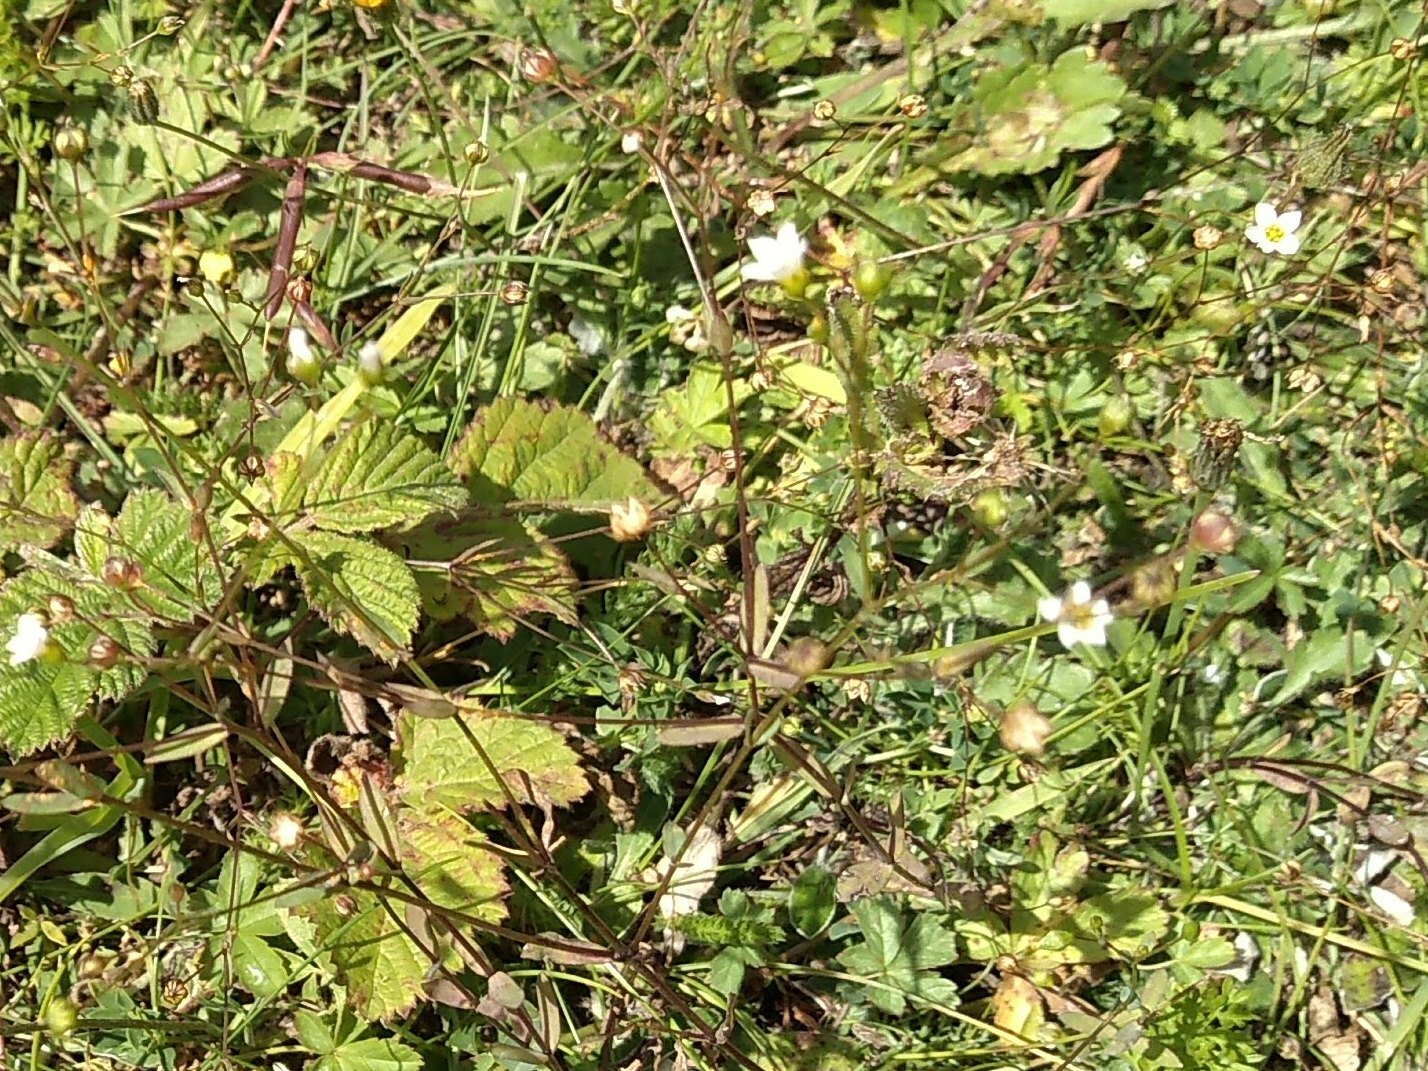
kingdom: Plantae
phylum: Tracheophyta
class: Magnoliopsida
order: Malpighiales
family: Linaceae
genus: Linum
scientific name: Linum catharticum
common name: Fairy flax
